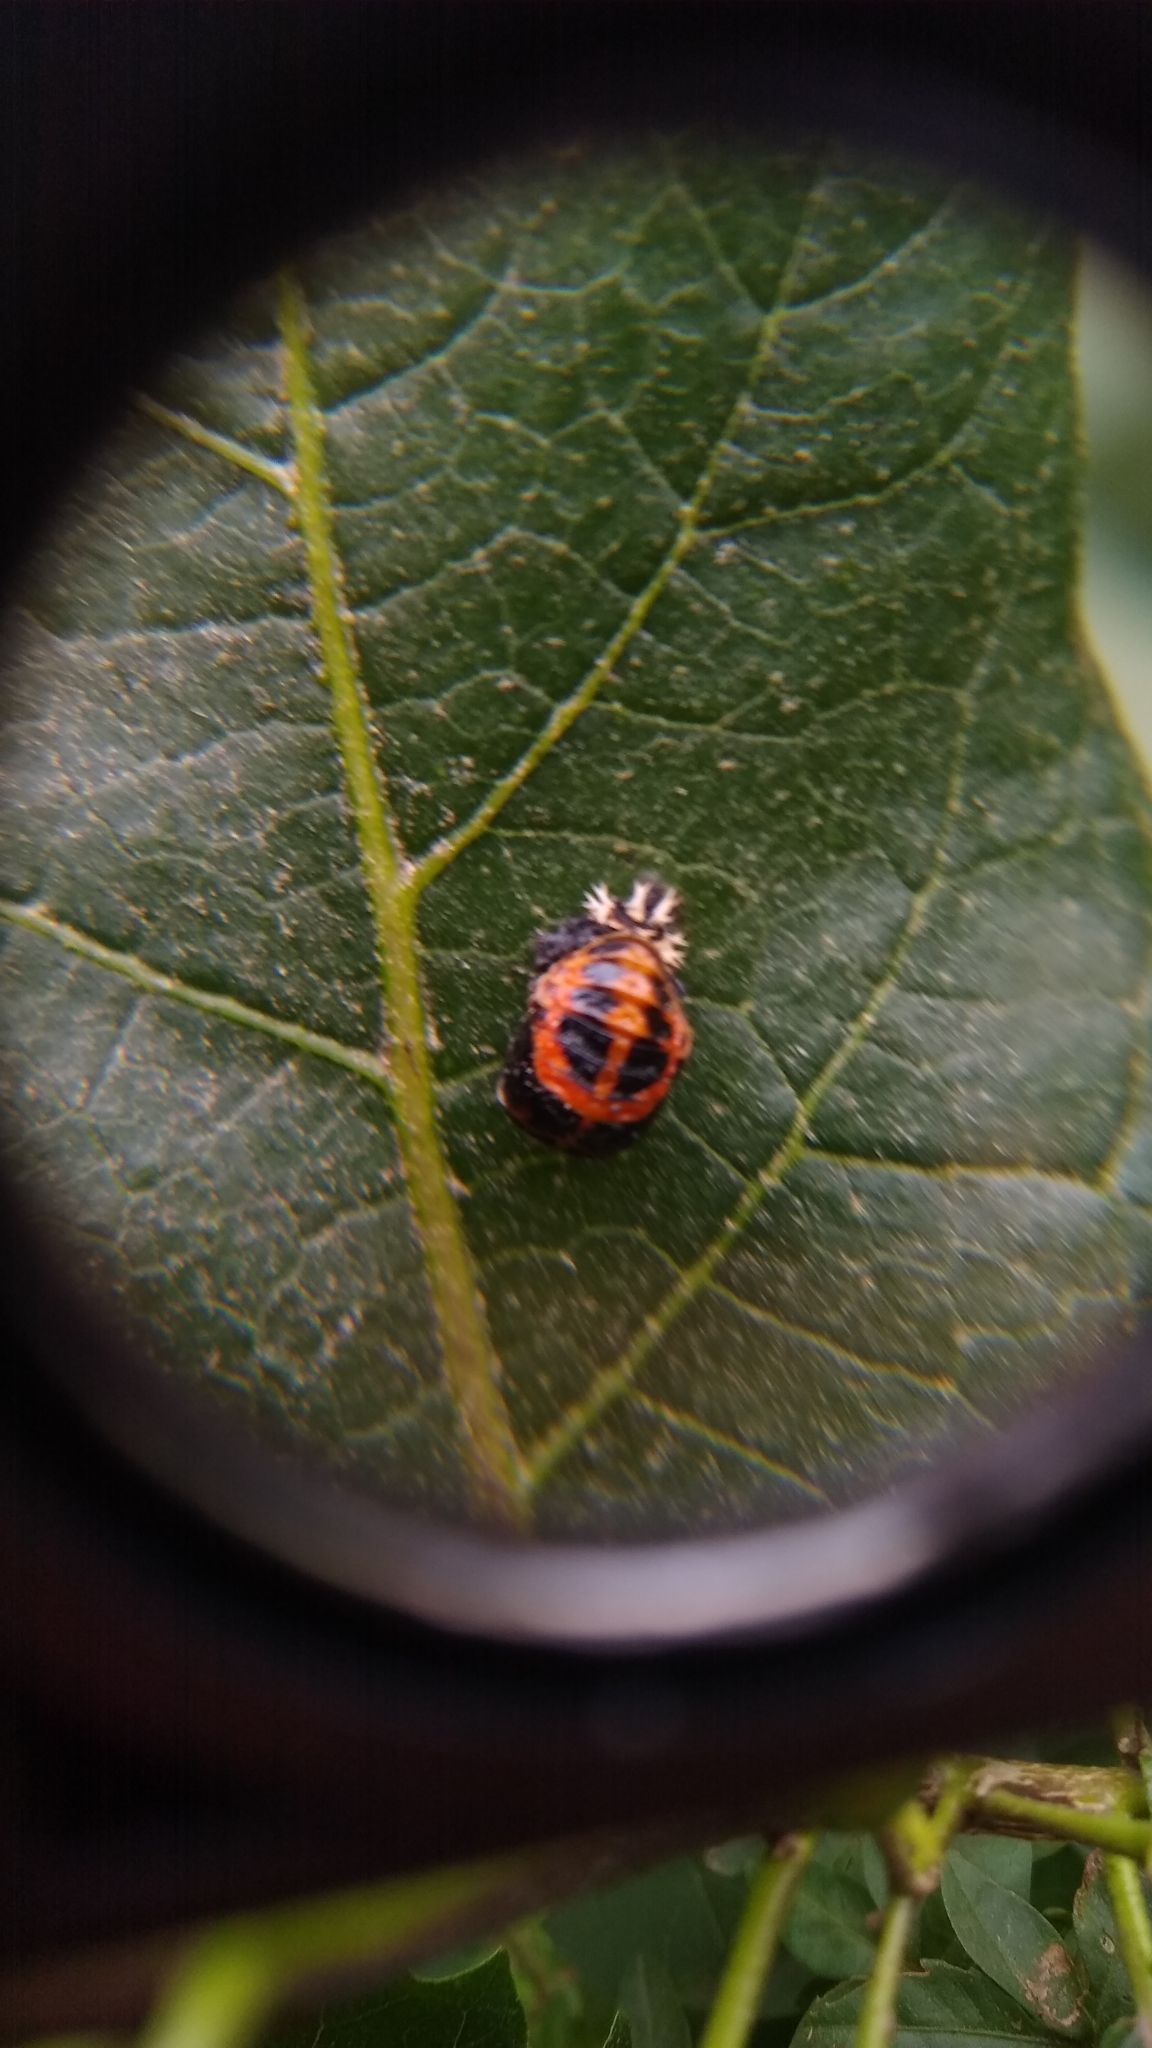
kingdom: Animalia
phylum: Arthropoda
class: Insecta
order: Coleoptera
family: Coccinellidae
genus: Harmonia
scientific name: Harmonia axyridis
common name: Harlequin ladybird
